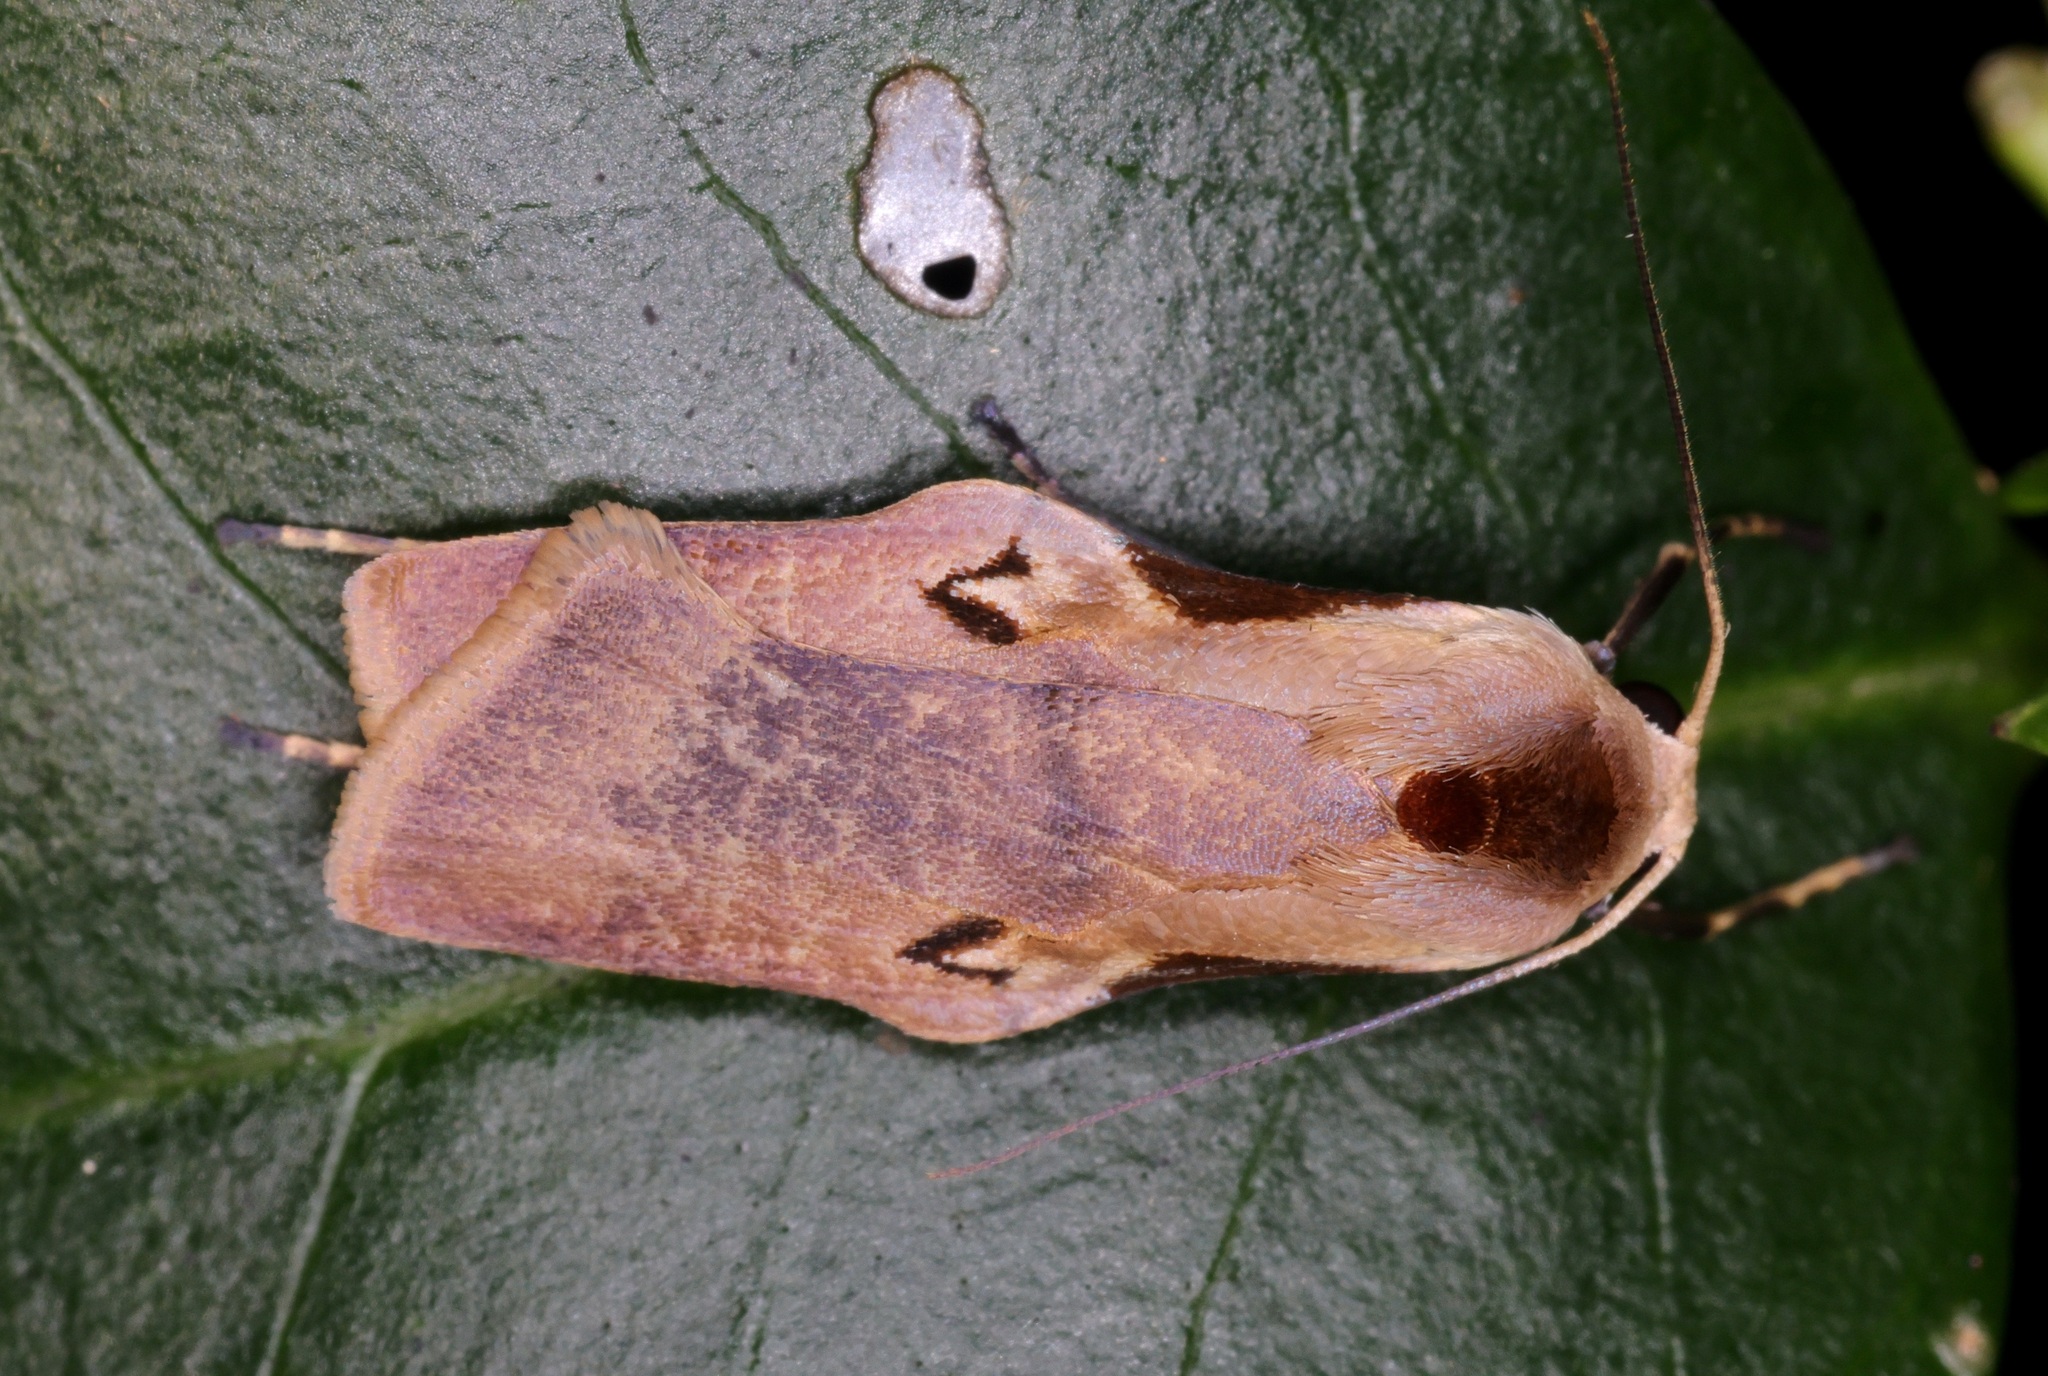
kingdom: Animalia
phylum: Arthropoda
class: Insecta
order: Lepidoptera
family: Erebidae
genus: Teulisna
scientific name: Teulisna tumida
